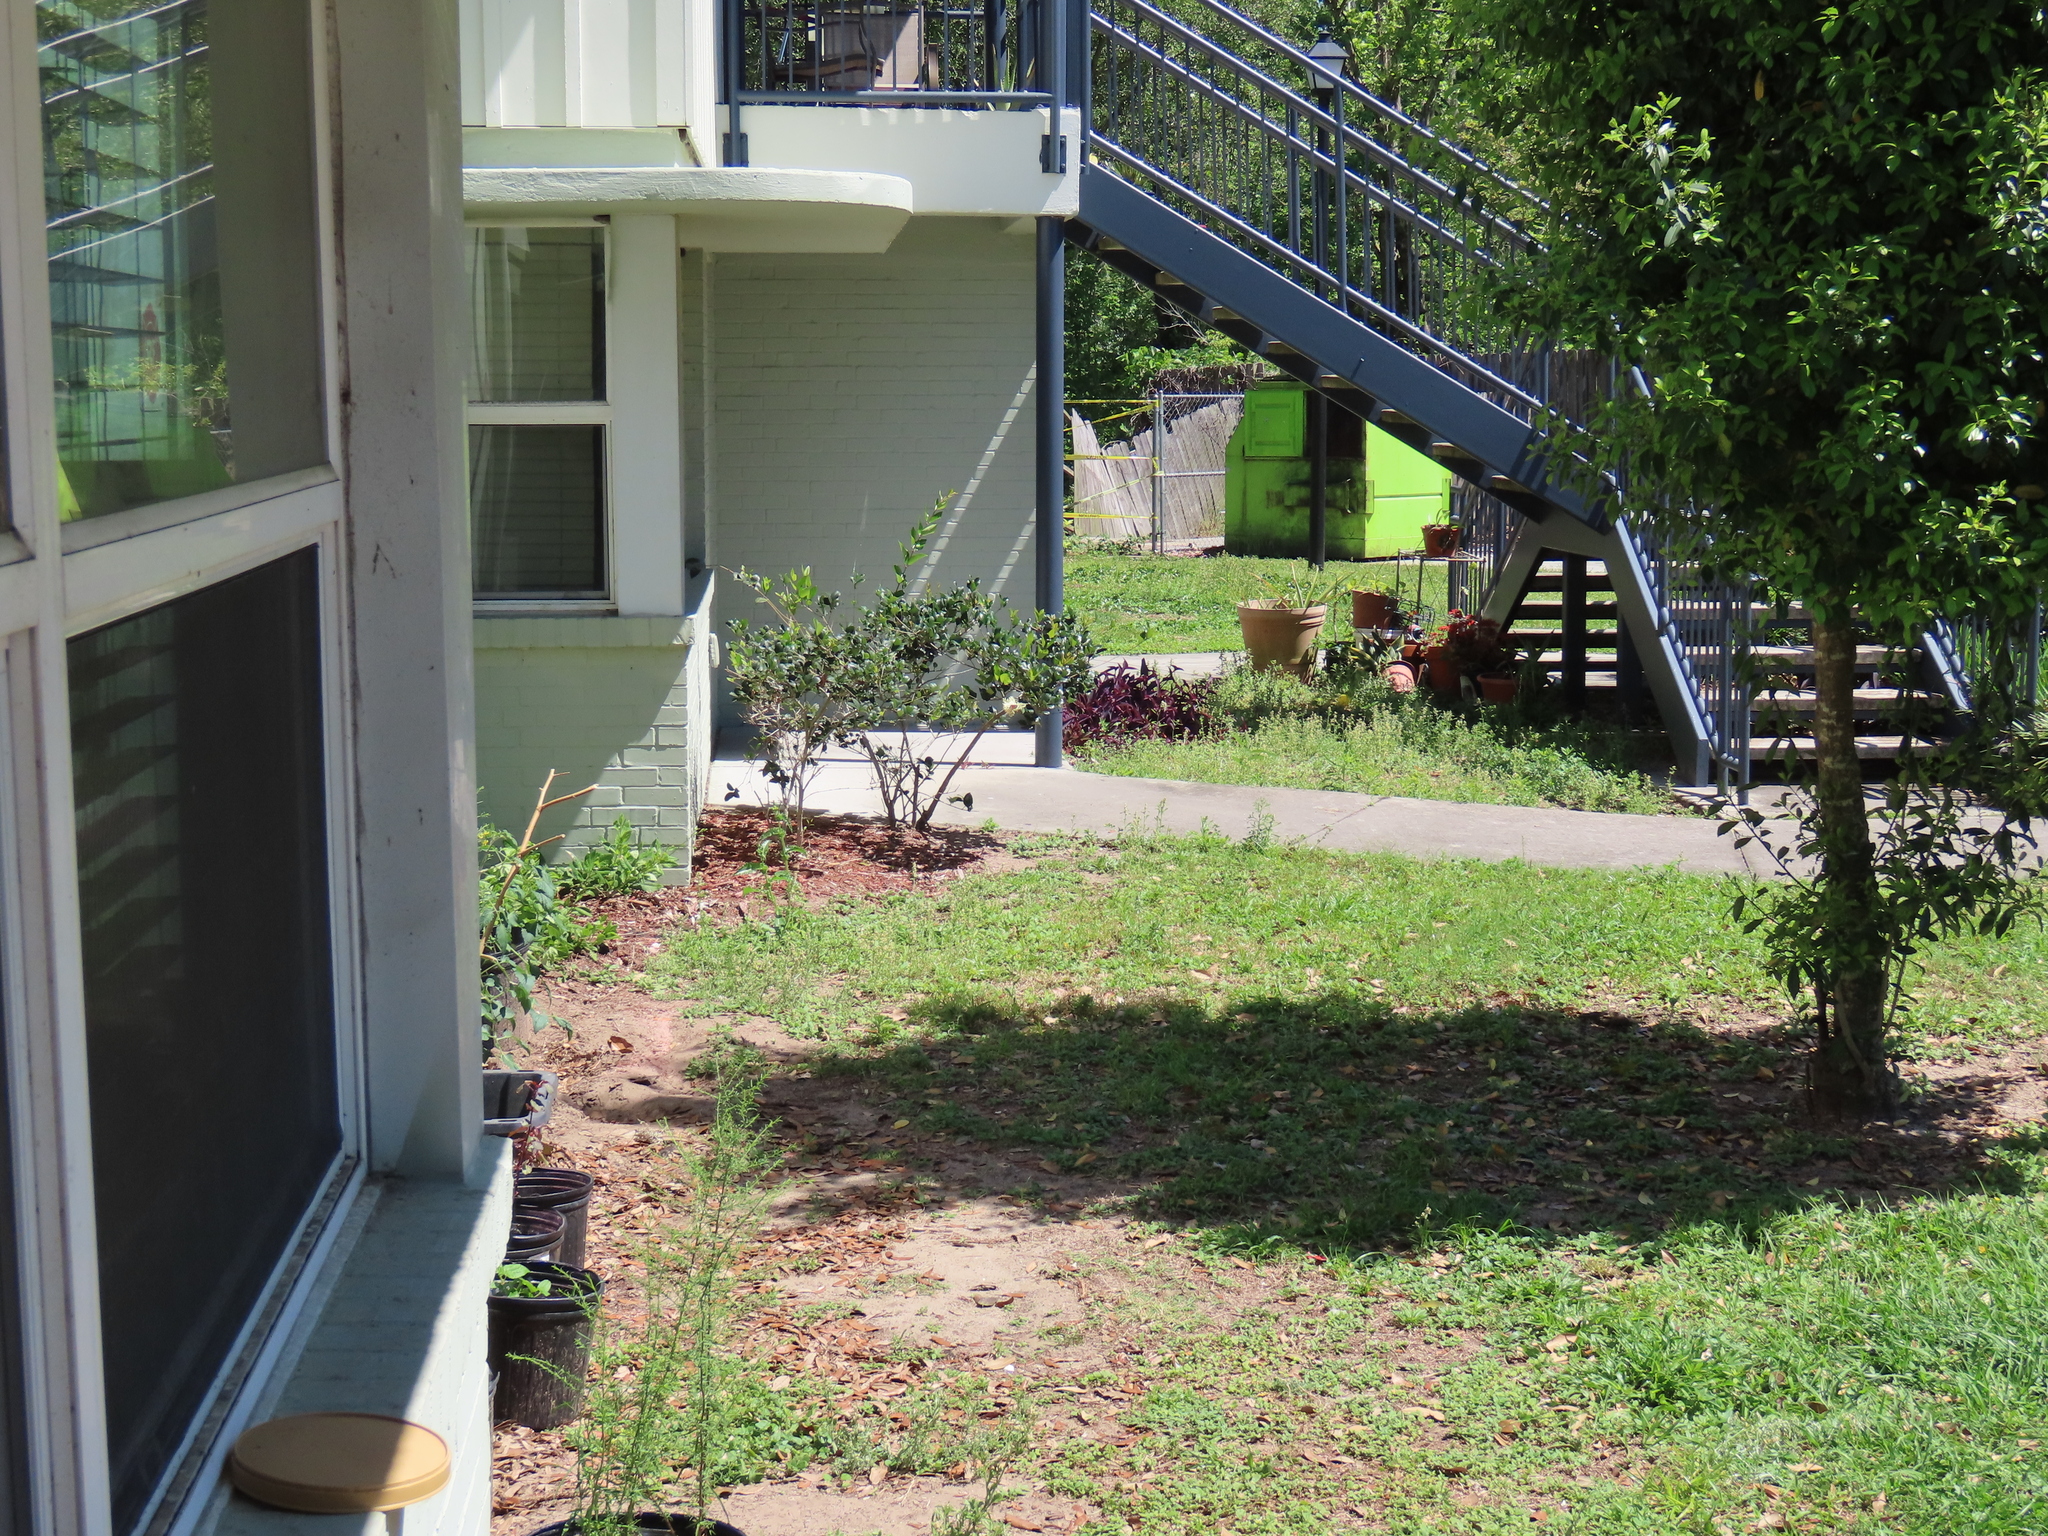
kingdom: Animalia
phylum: Arthropoda
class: Insecta
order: Lepidoptera
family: Nymphalidae
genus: Danaus
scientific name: Danaus plexippus
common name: Monarch
